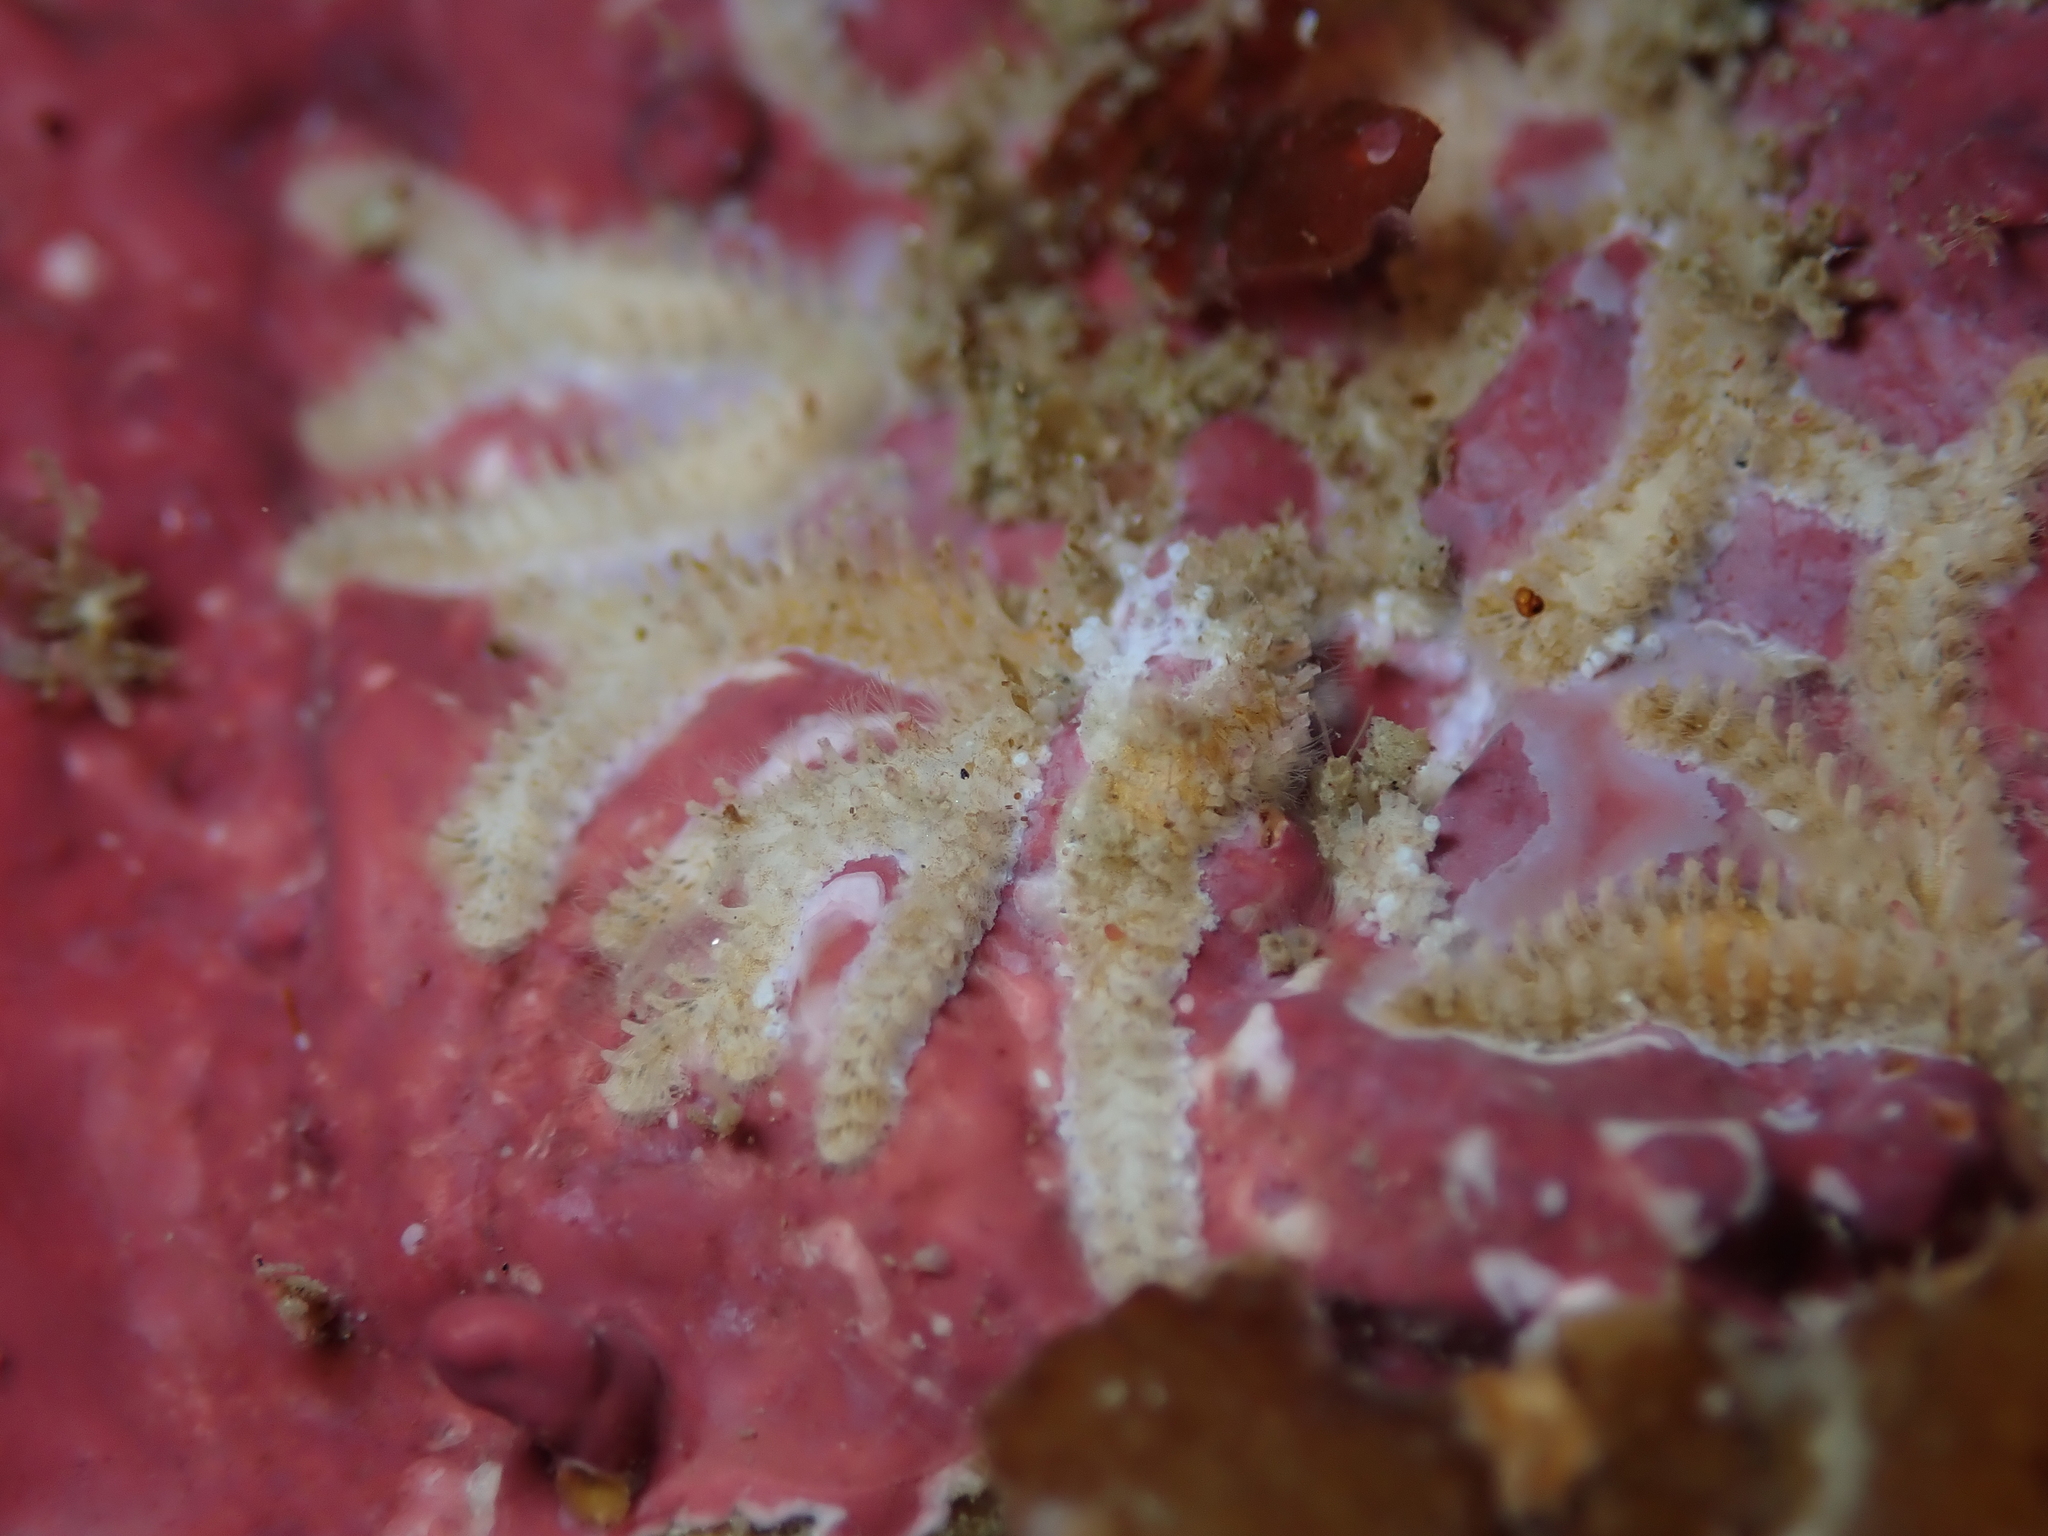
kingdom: Animalia
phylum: Bryozoa
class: Stenolaemata
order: Cyclostomatida
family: Tubuliporidae
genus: Tubulipora
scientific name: Tubulipora anderssoni
